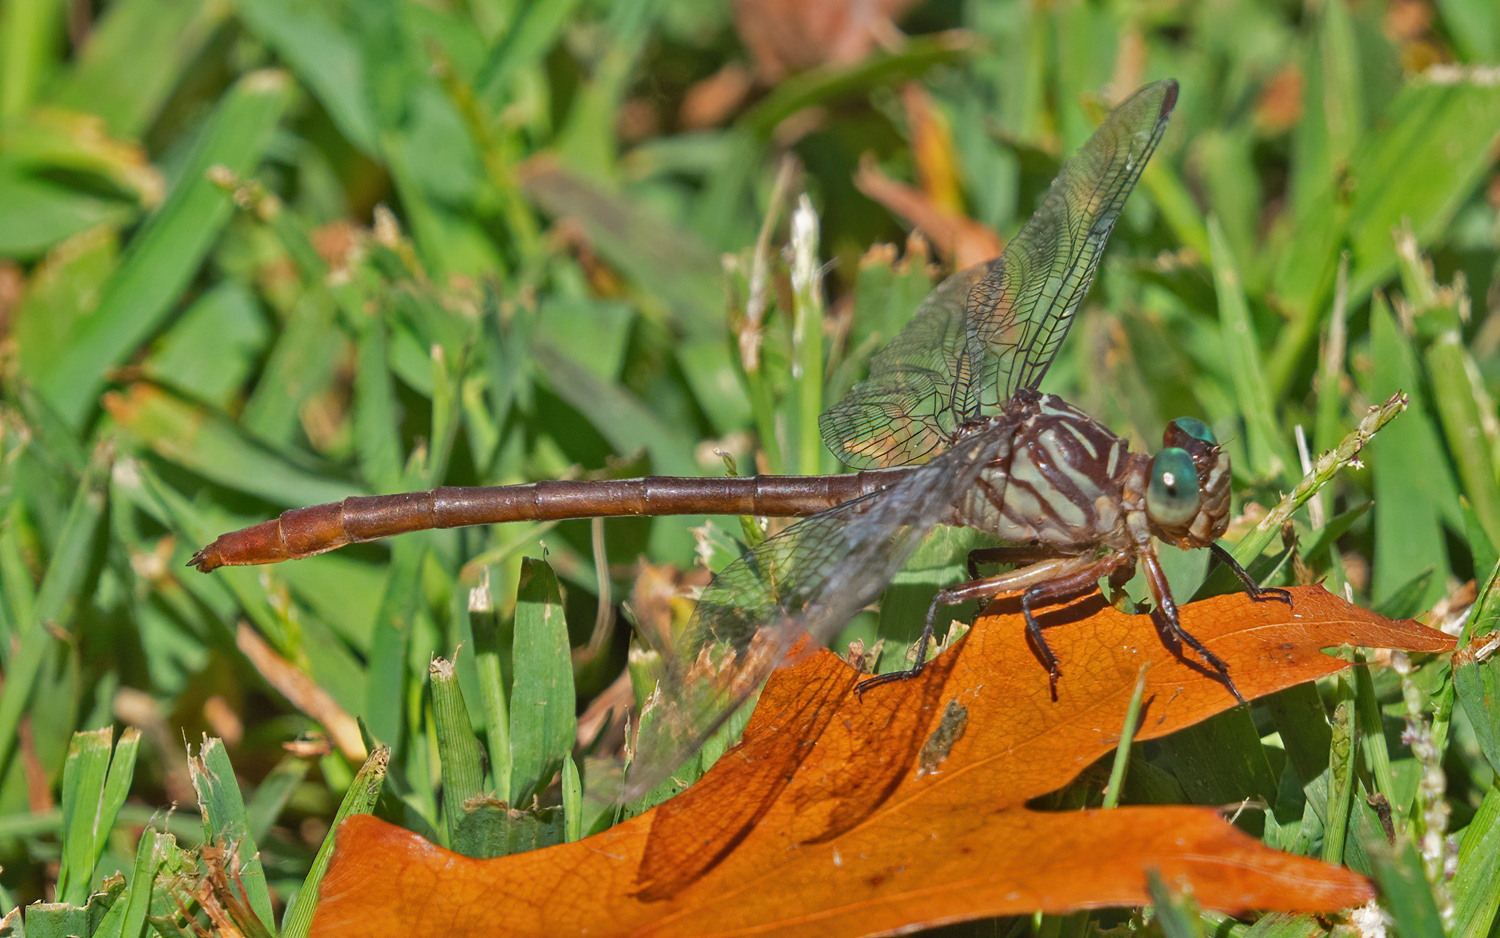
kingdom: Animalia
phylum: Arthropoda
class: Insecta
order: Odonata
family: Gomphidae
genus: Stylurus
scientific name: Stylurus plagiatus
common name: Russet-tipped clubtail
